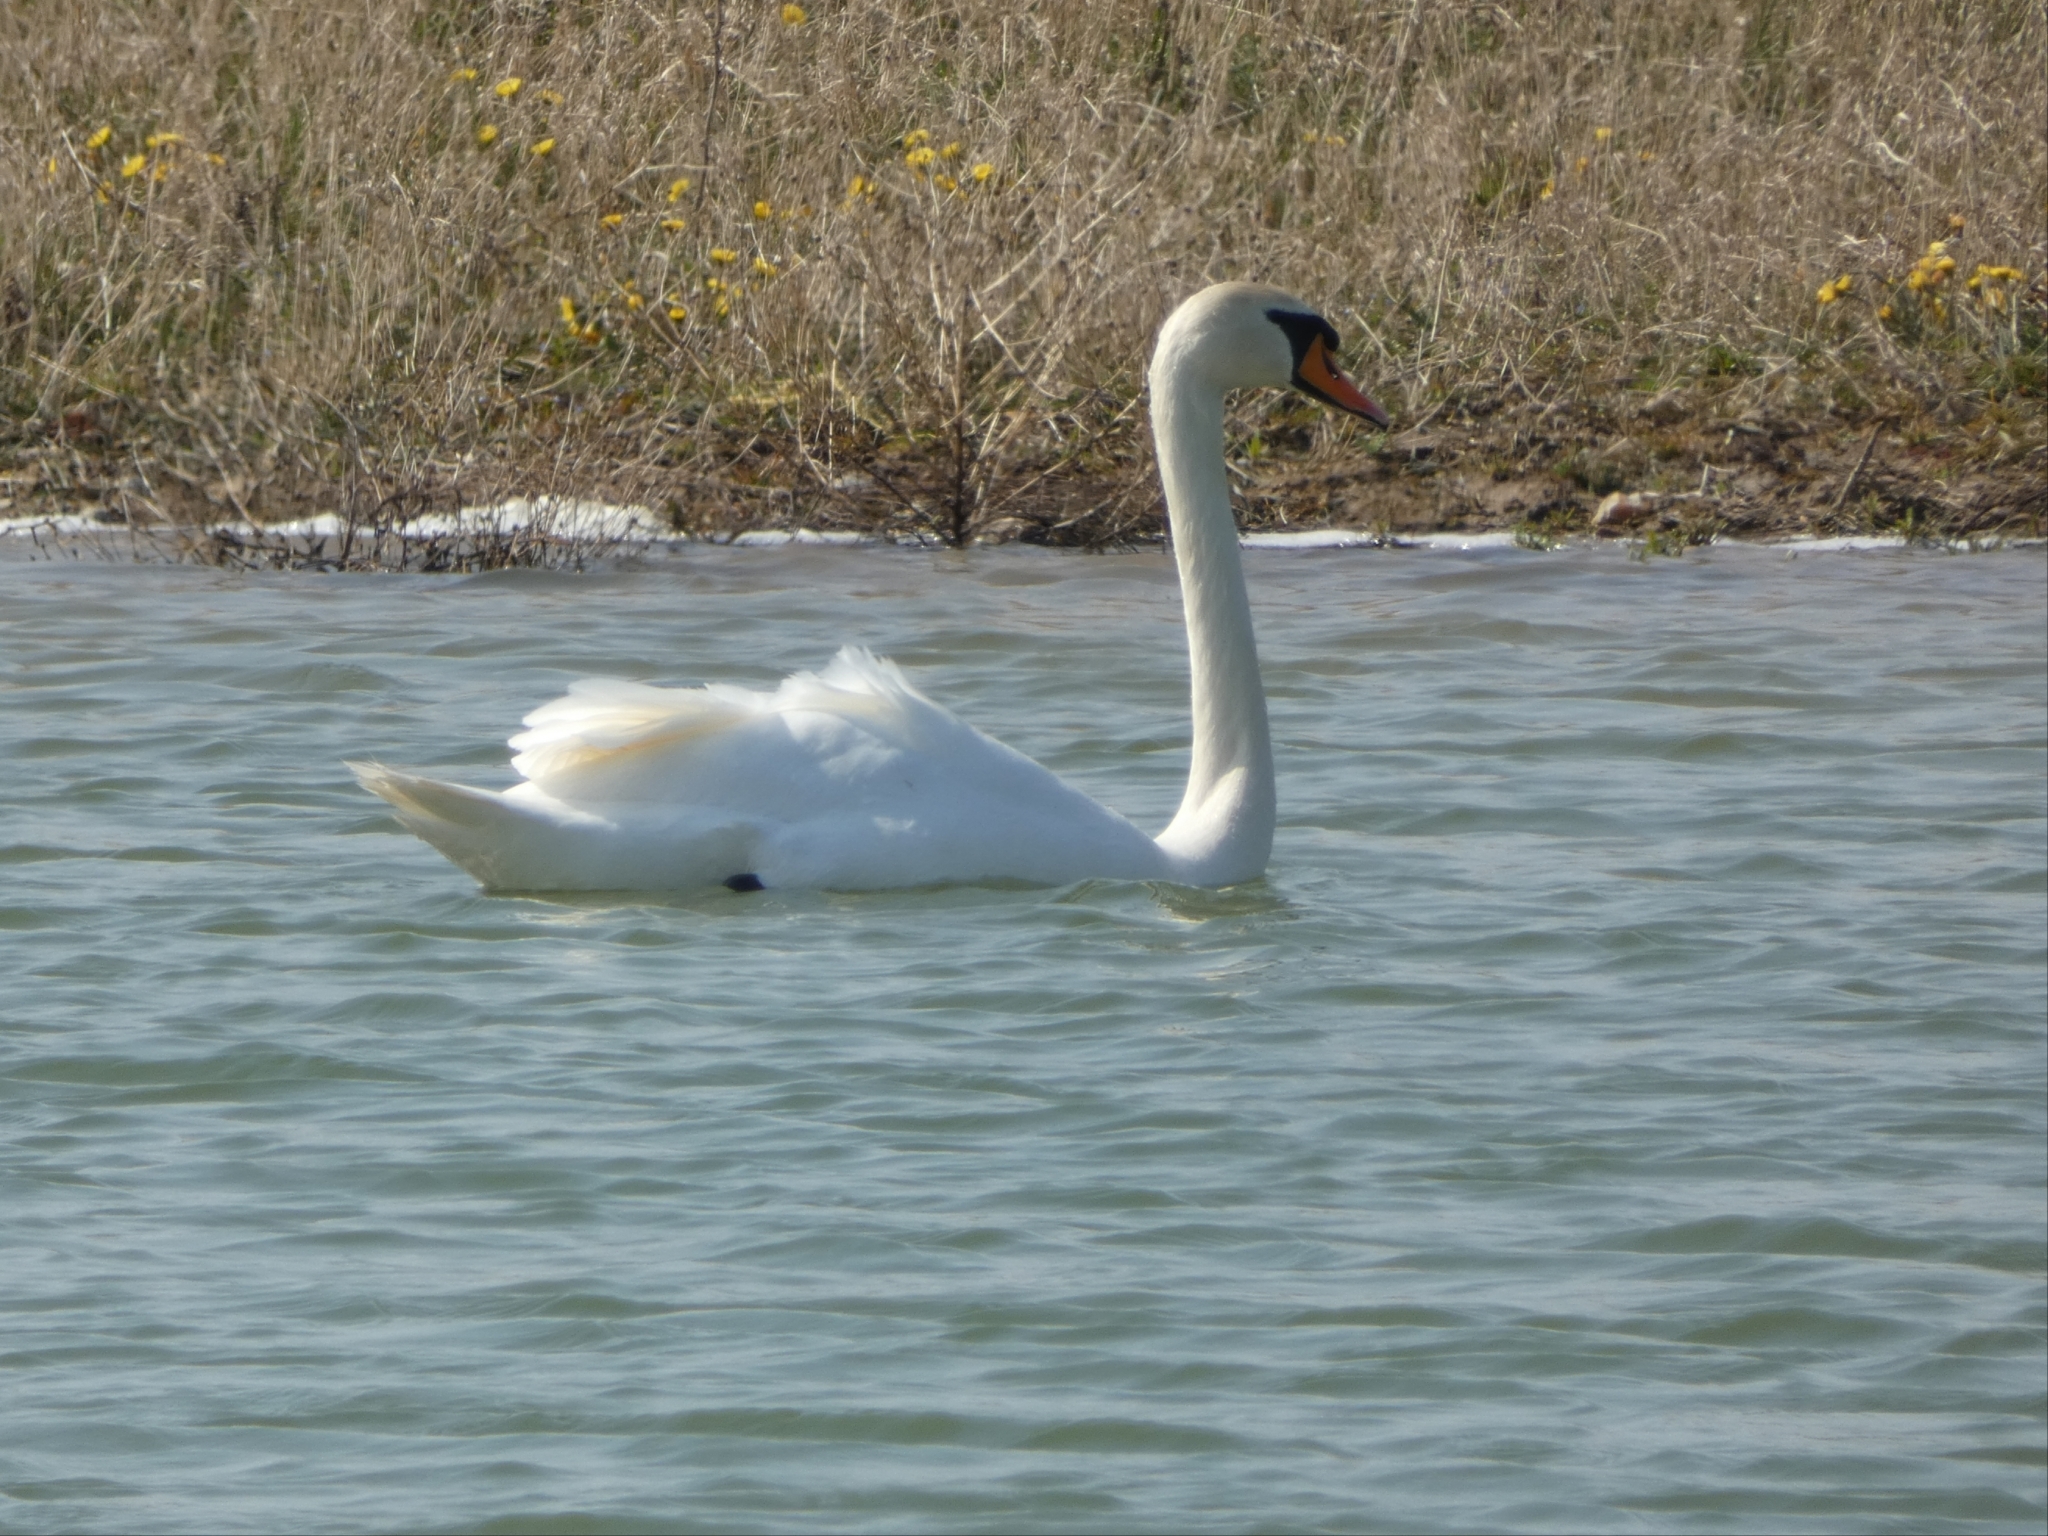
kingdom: Animalia
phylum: Chordata
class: Aves
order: Anseriformes
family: Anatidae
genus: Cygnus
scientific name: Cygnus olor
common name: Mute swan
